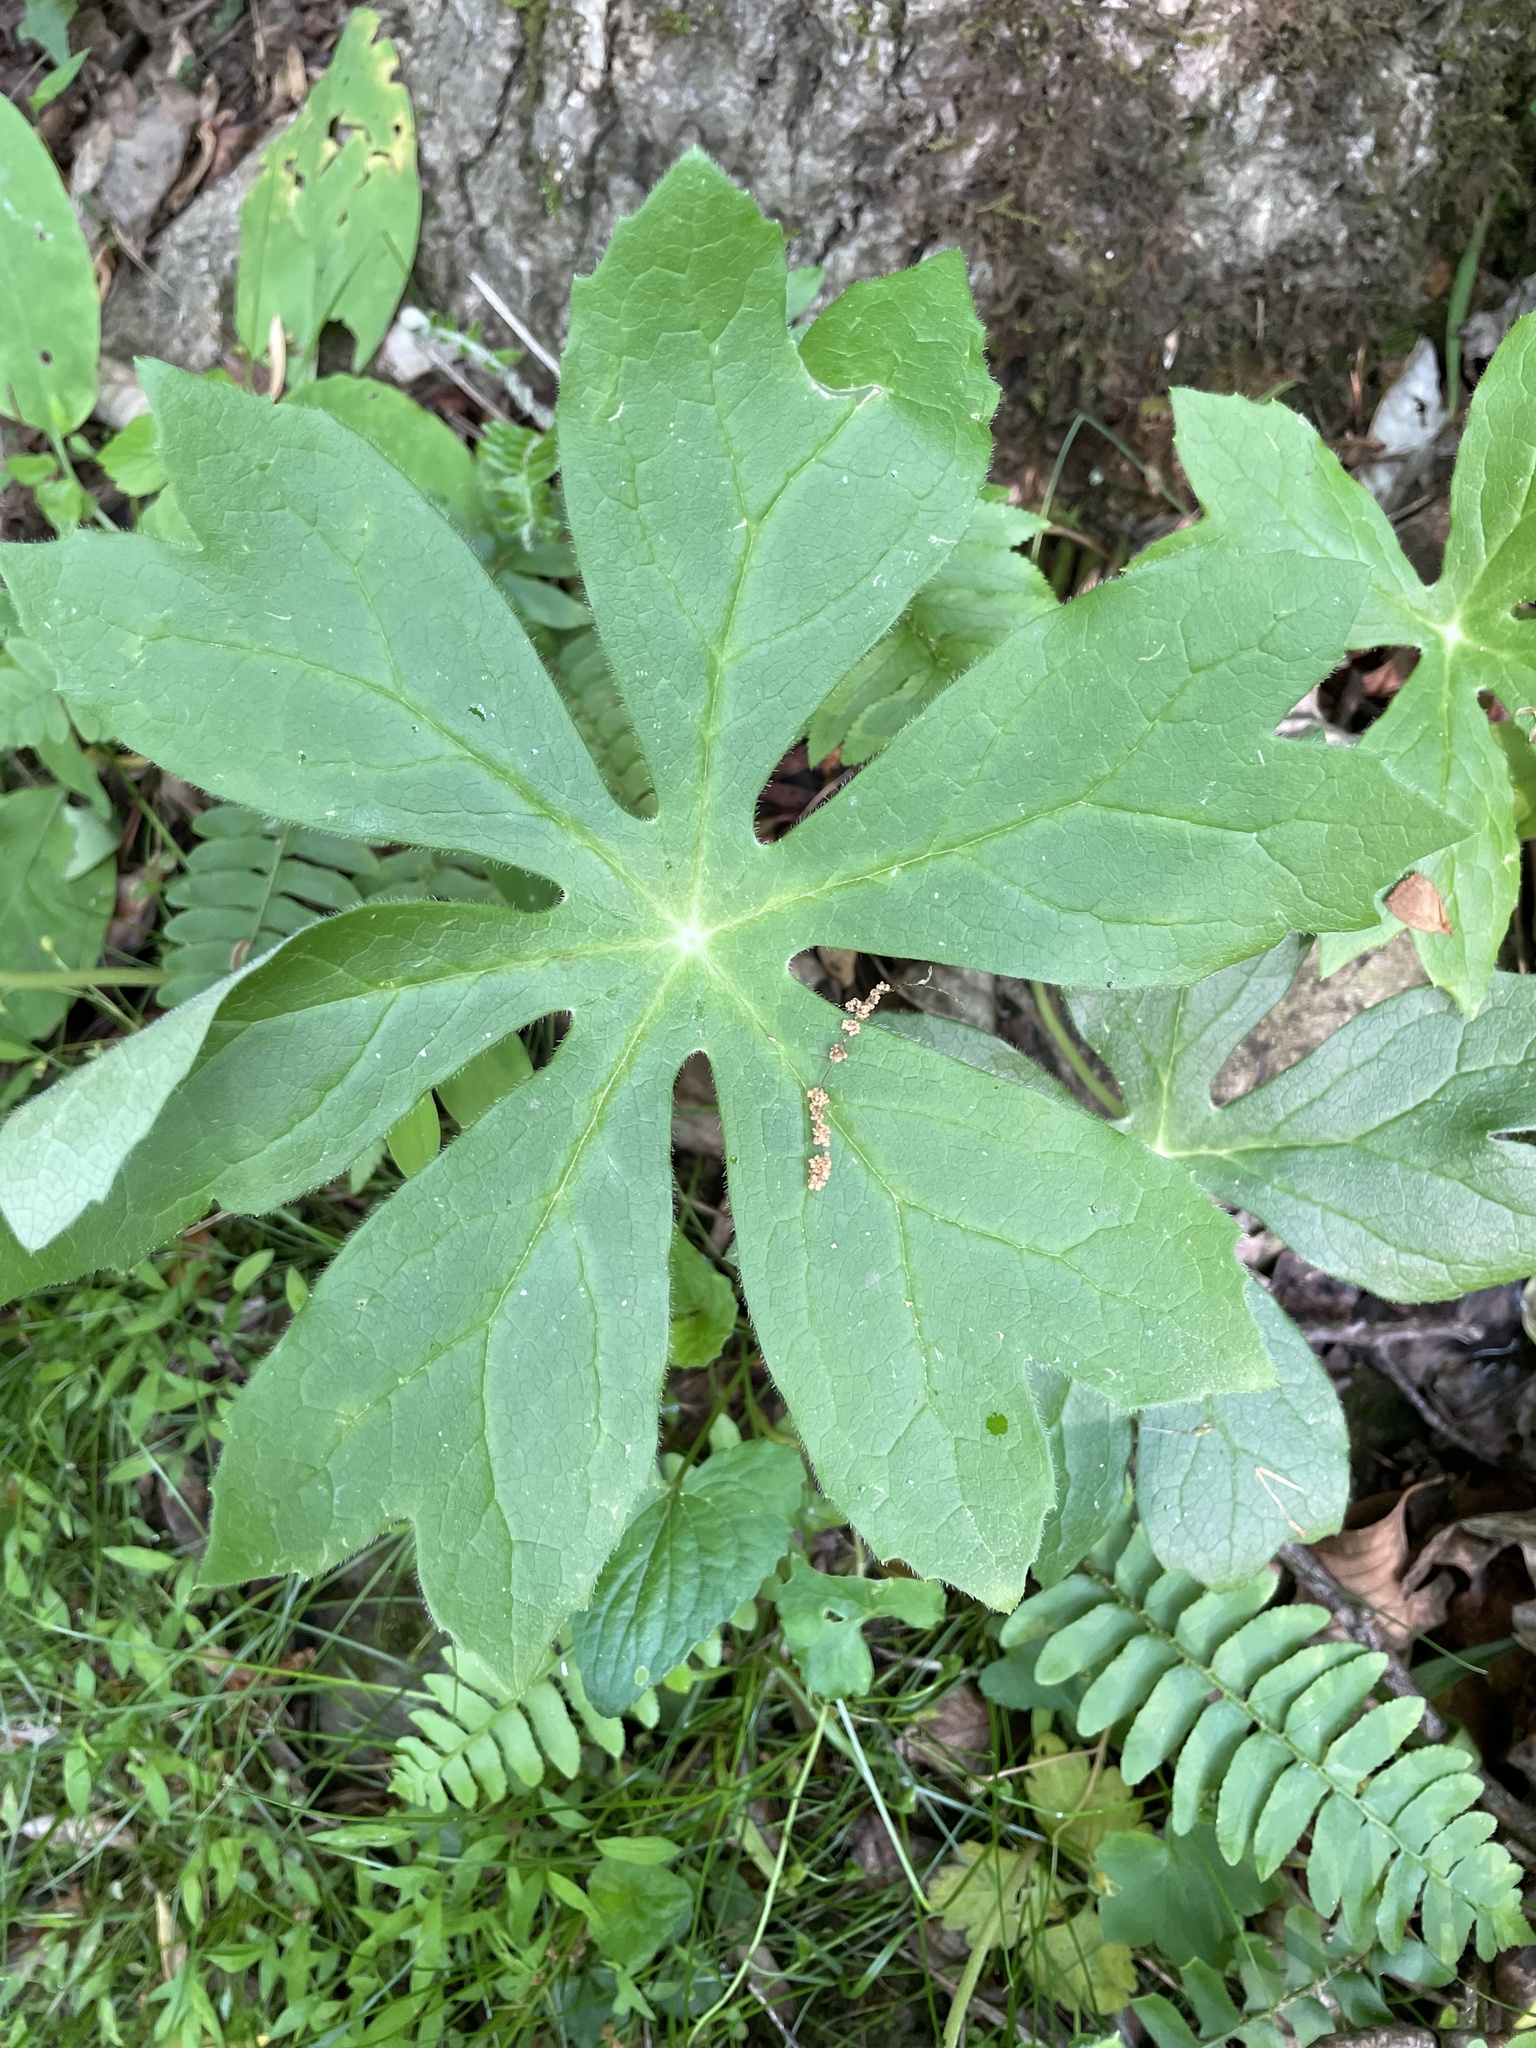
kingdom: Plantae
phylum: Tracheophyta
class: Magnoliopsida
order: Ranunculales
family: Berberidaceae
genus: Podophyllum
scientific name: Podophyllum peltatum
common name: Wild mandrake
